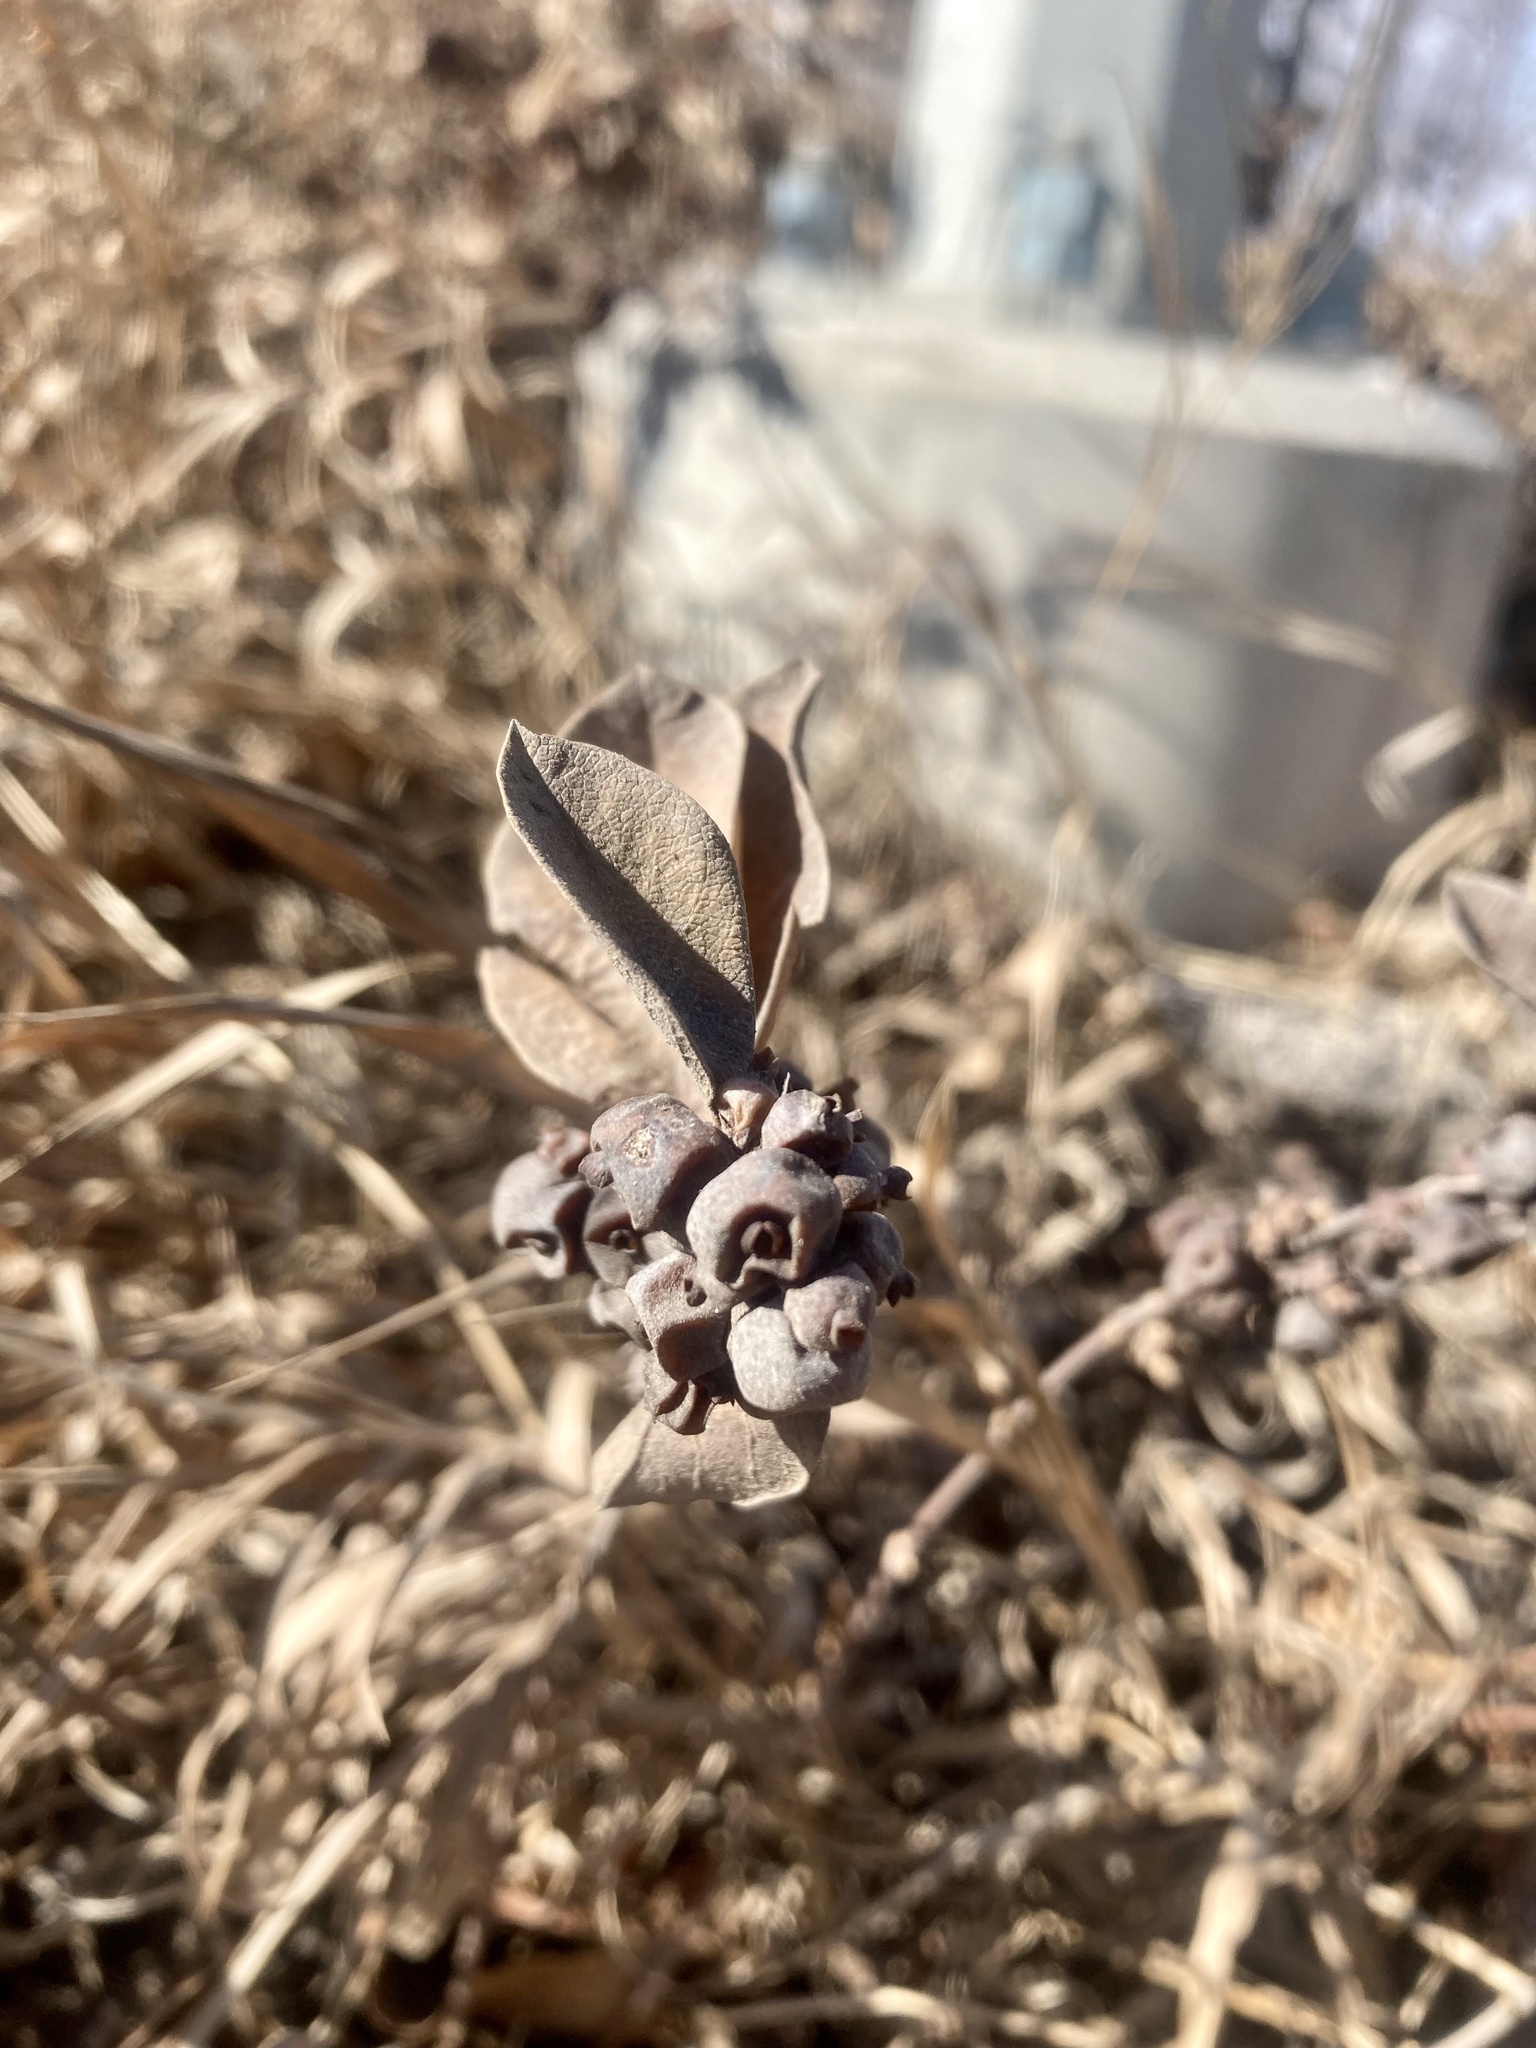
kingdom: Plantae
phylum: Tracheophyta
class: Magnoliopsida
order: Dipsacales
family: Caprifoliaceae
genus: Symphoricarpos
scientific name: Symphoricarpos occidentalis
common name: Wolfberry
